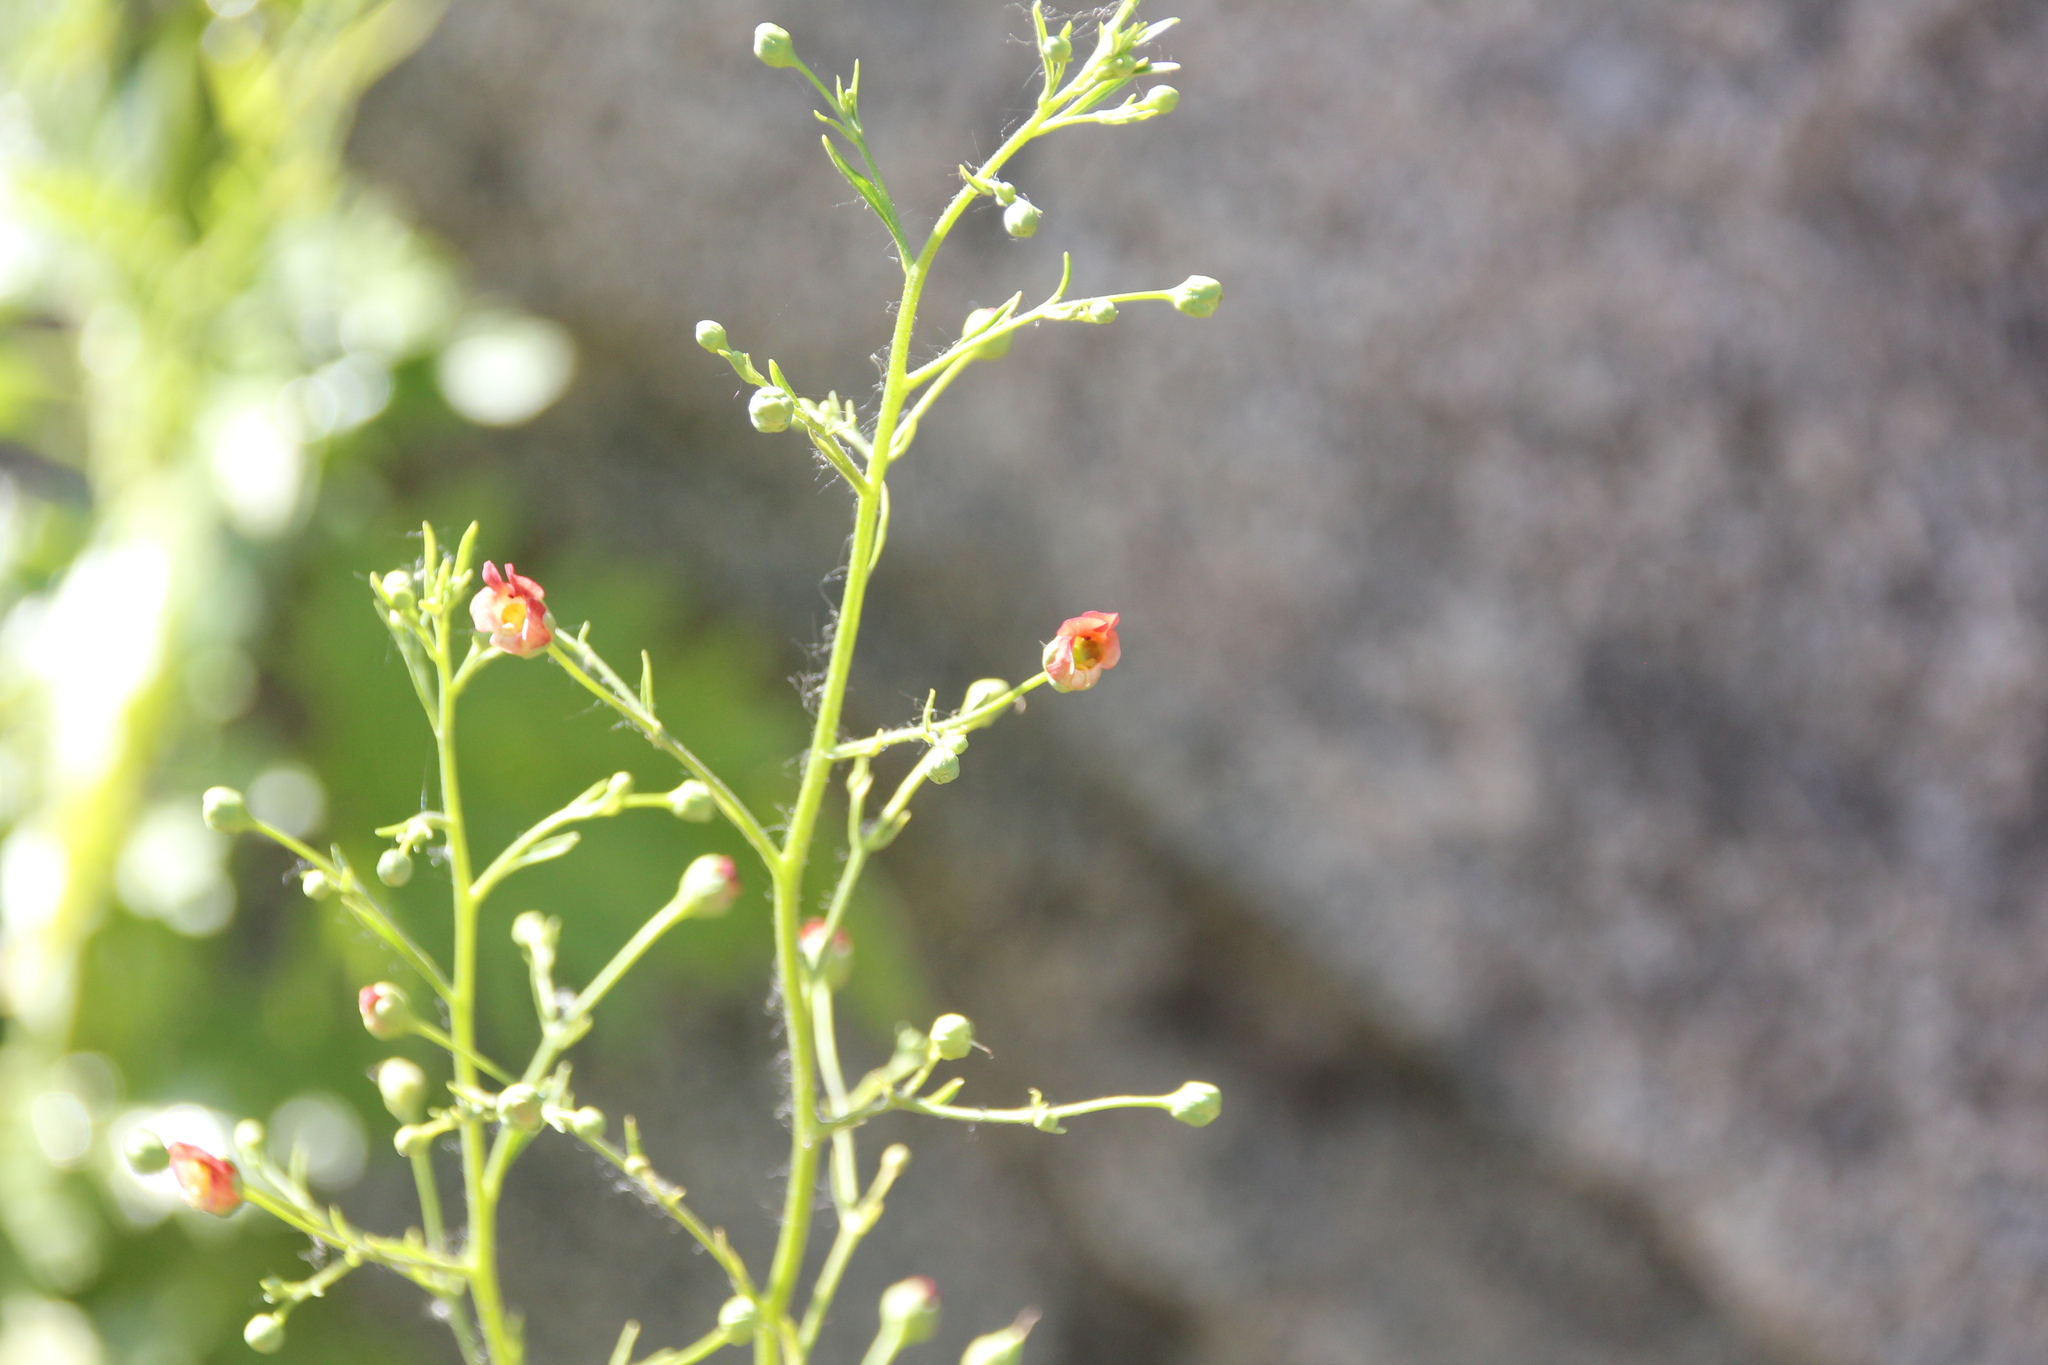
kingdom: Plantae
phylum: Tracheophyta
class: Magnoliopsida
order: Lamiales
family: Scrophulariaceae
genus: Scrophularia
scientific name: Scrophularia californica
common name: California figwort
